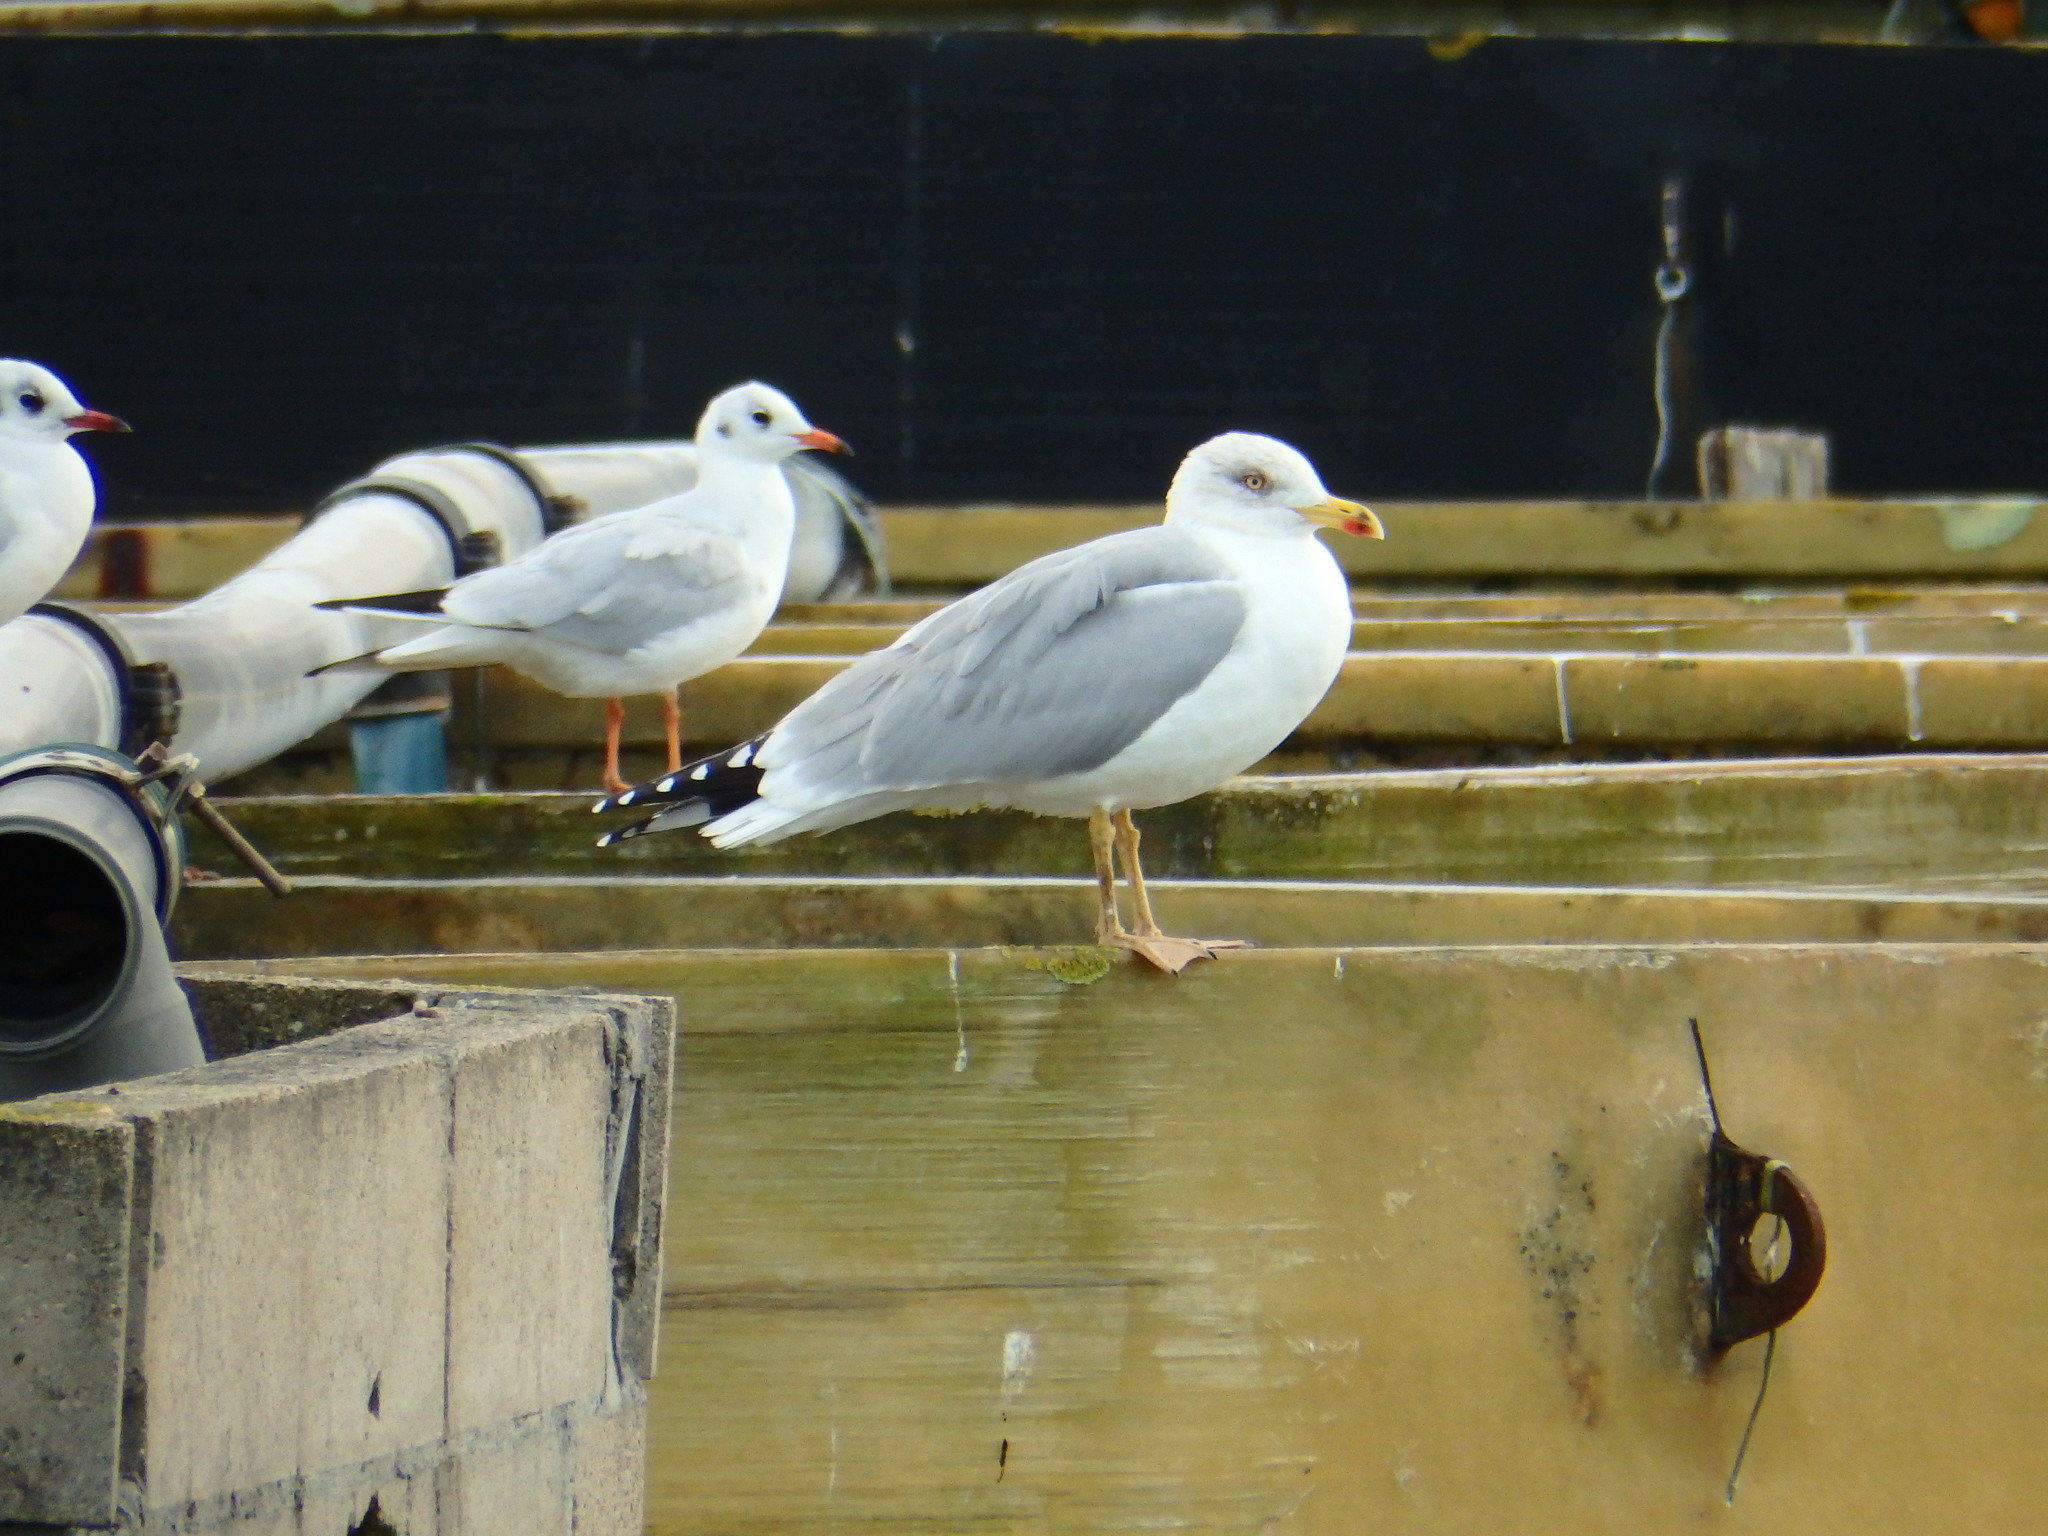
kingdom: Animalia
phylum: Chordata
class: Aves
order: Charadriiformes
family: Laridae
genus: Chroicocephalus
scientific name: Chroicocephalus ridibundus
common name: Black-headed gull
